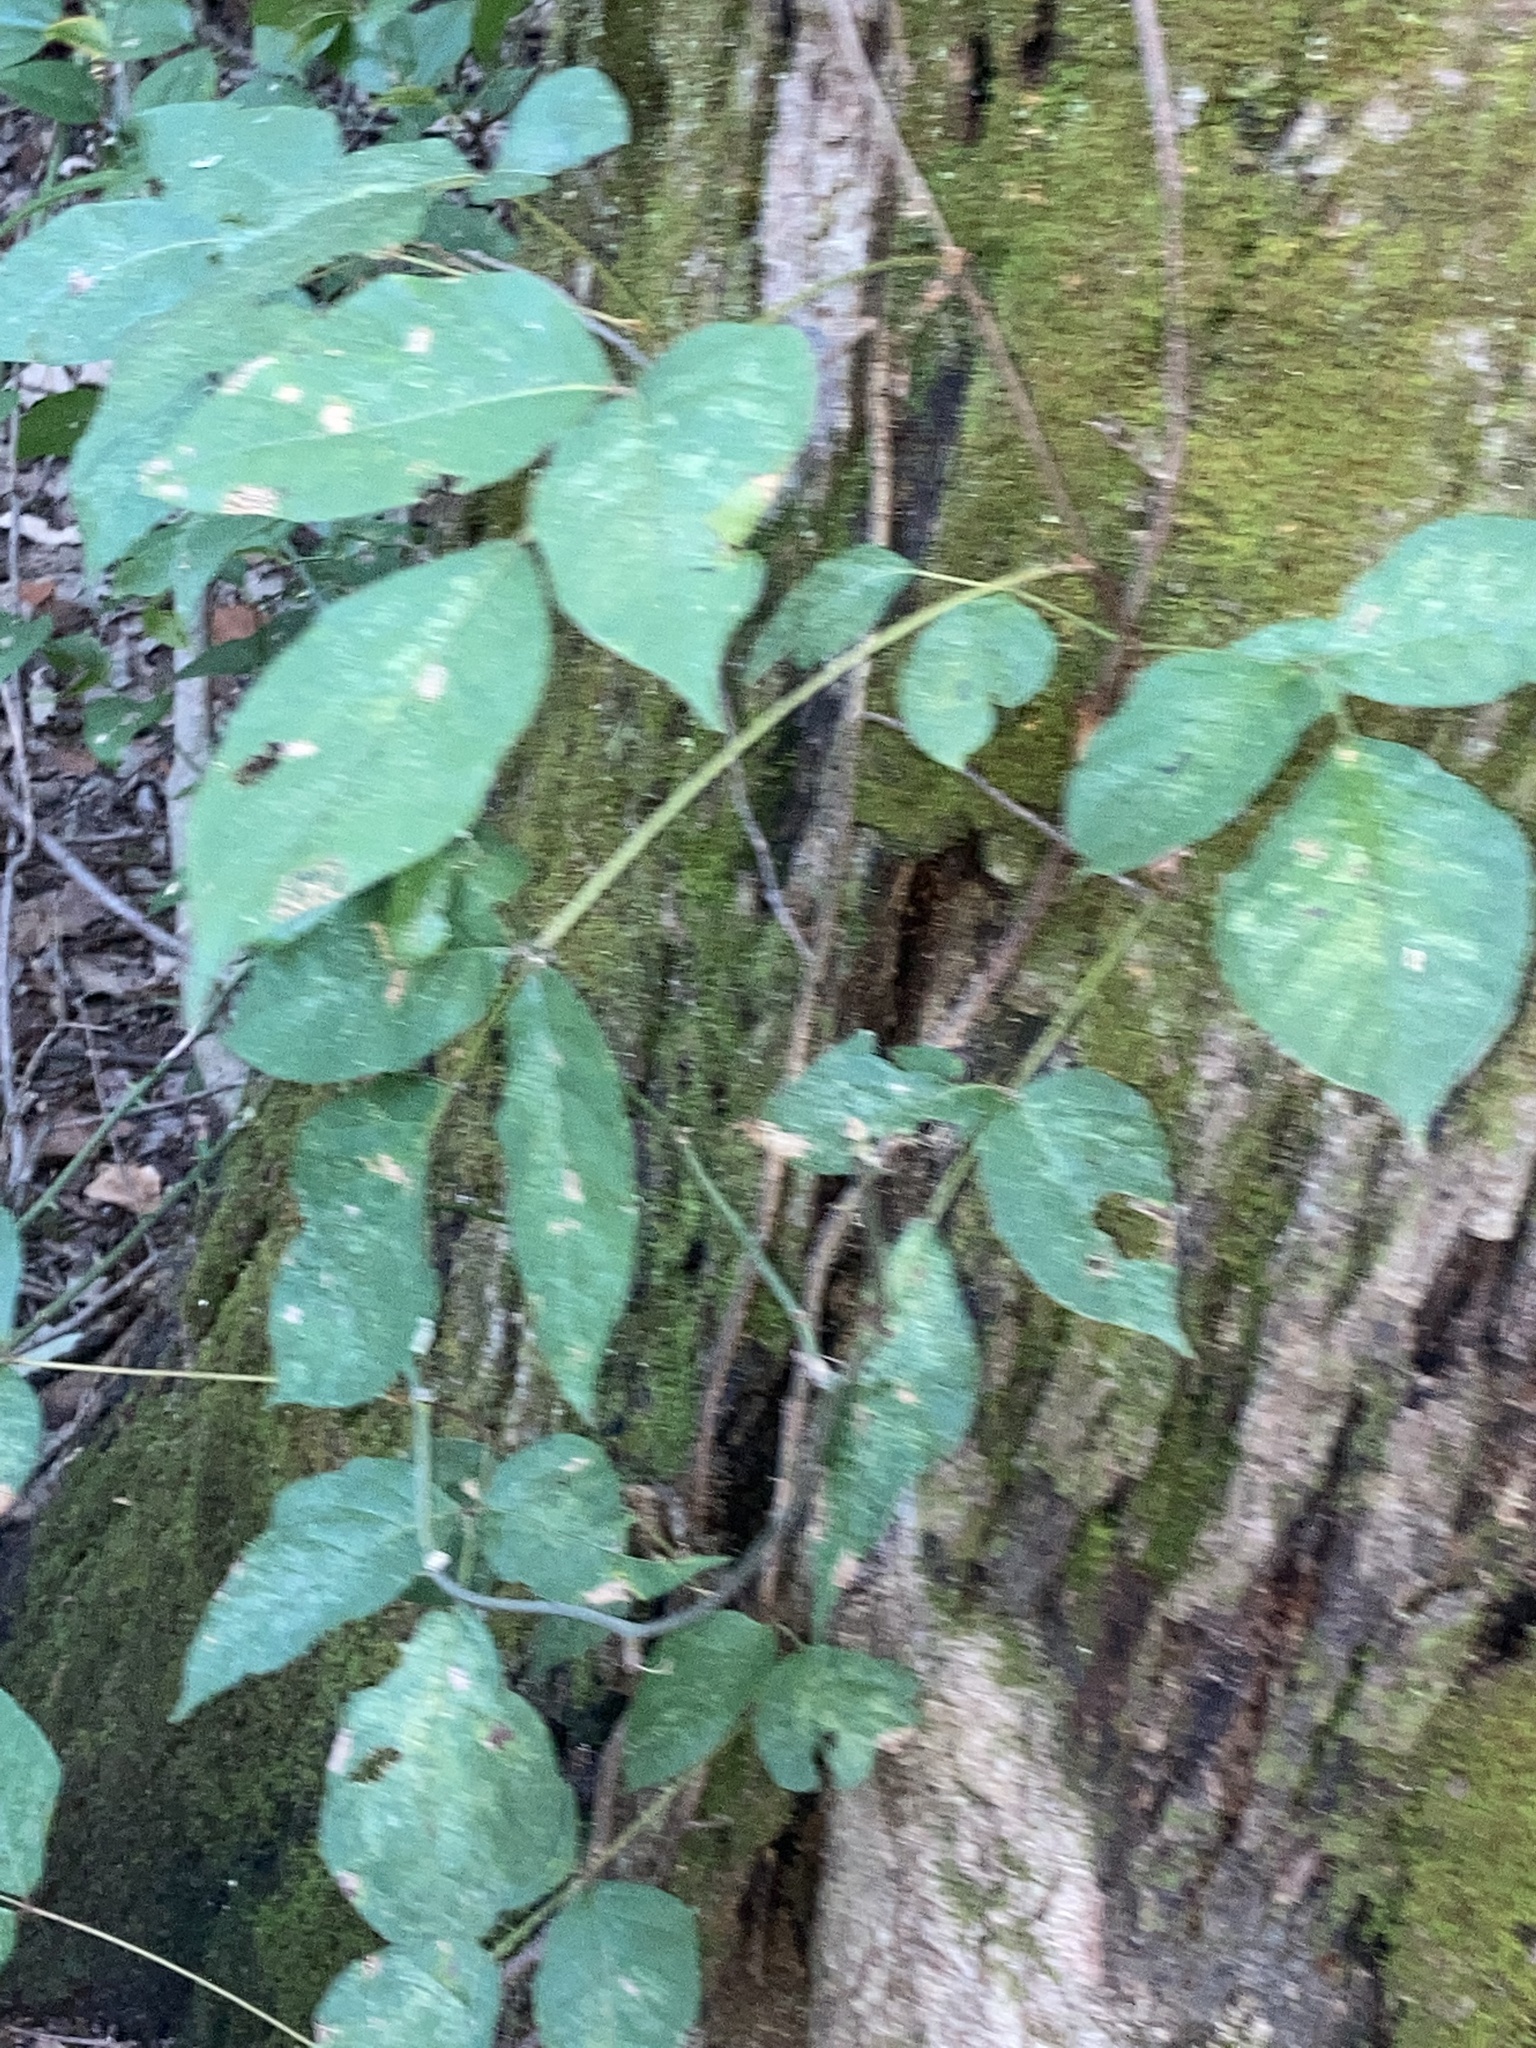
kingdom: Plantae
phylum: Tracheophyta
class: Magnoliopsida
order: Sapindales
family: Anacardiaceae
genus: Toxicodendron
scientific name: Toxicodendron radicans
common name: Poison ivy
